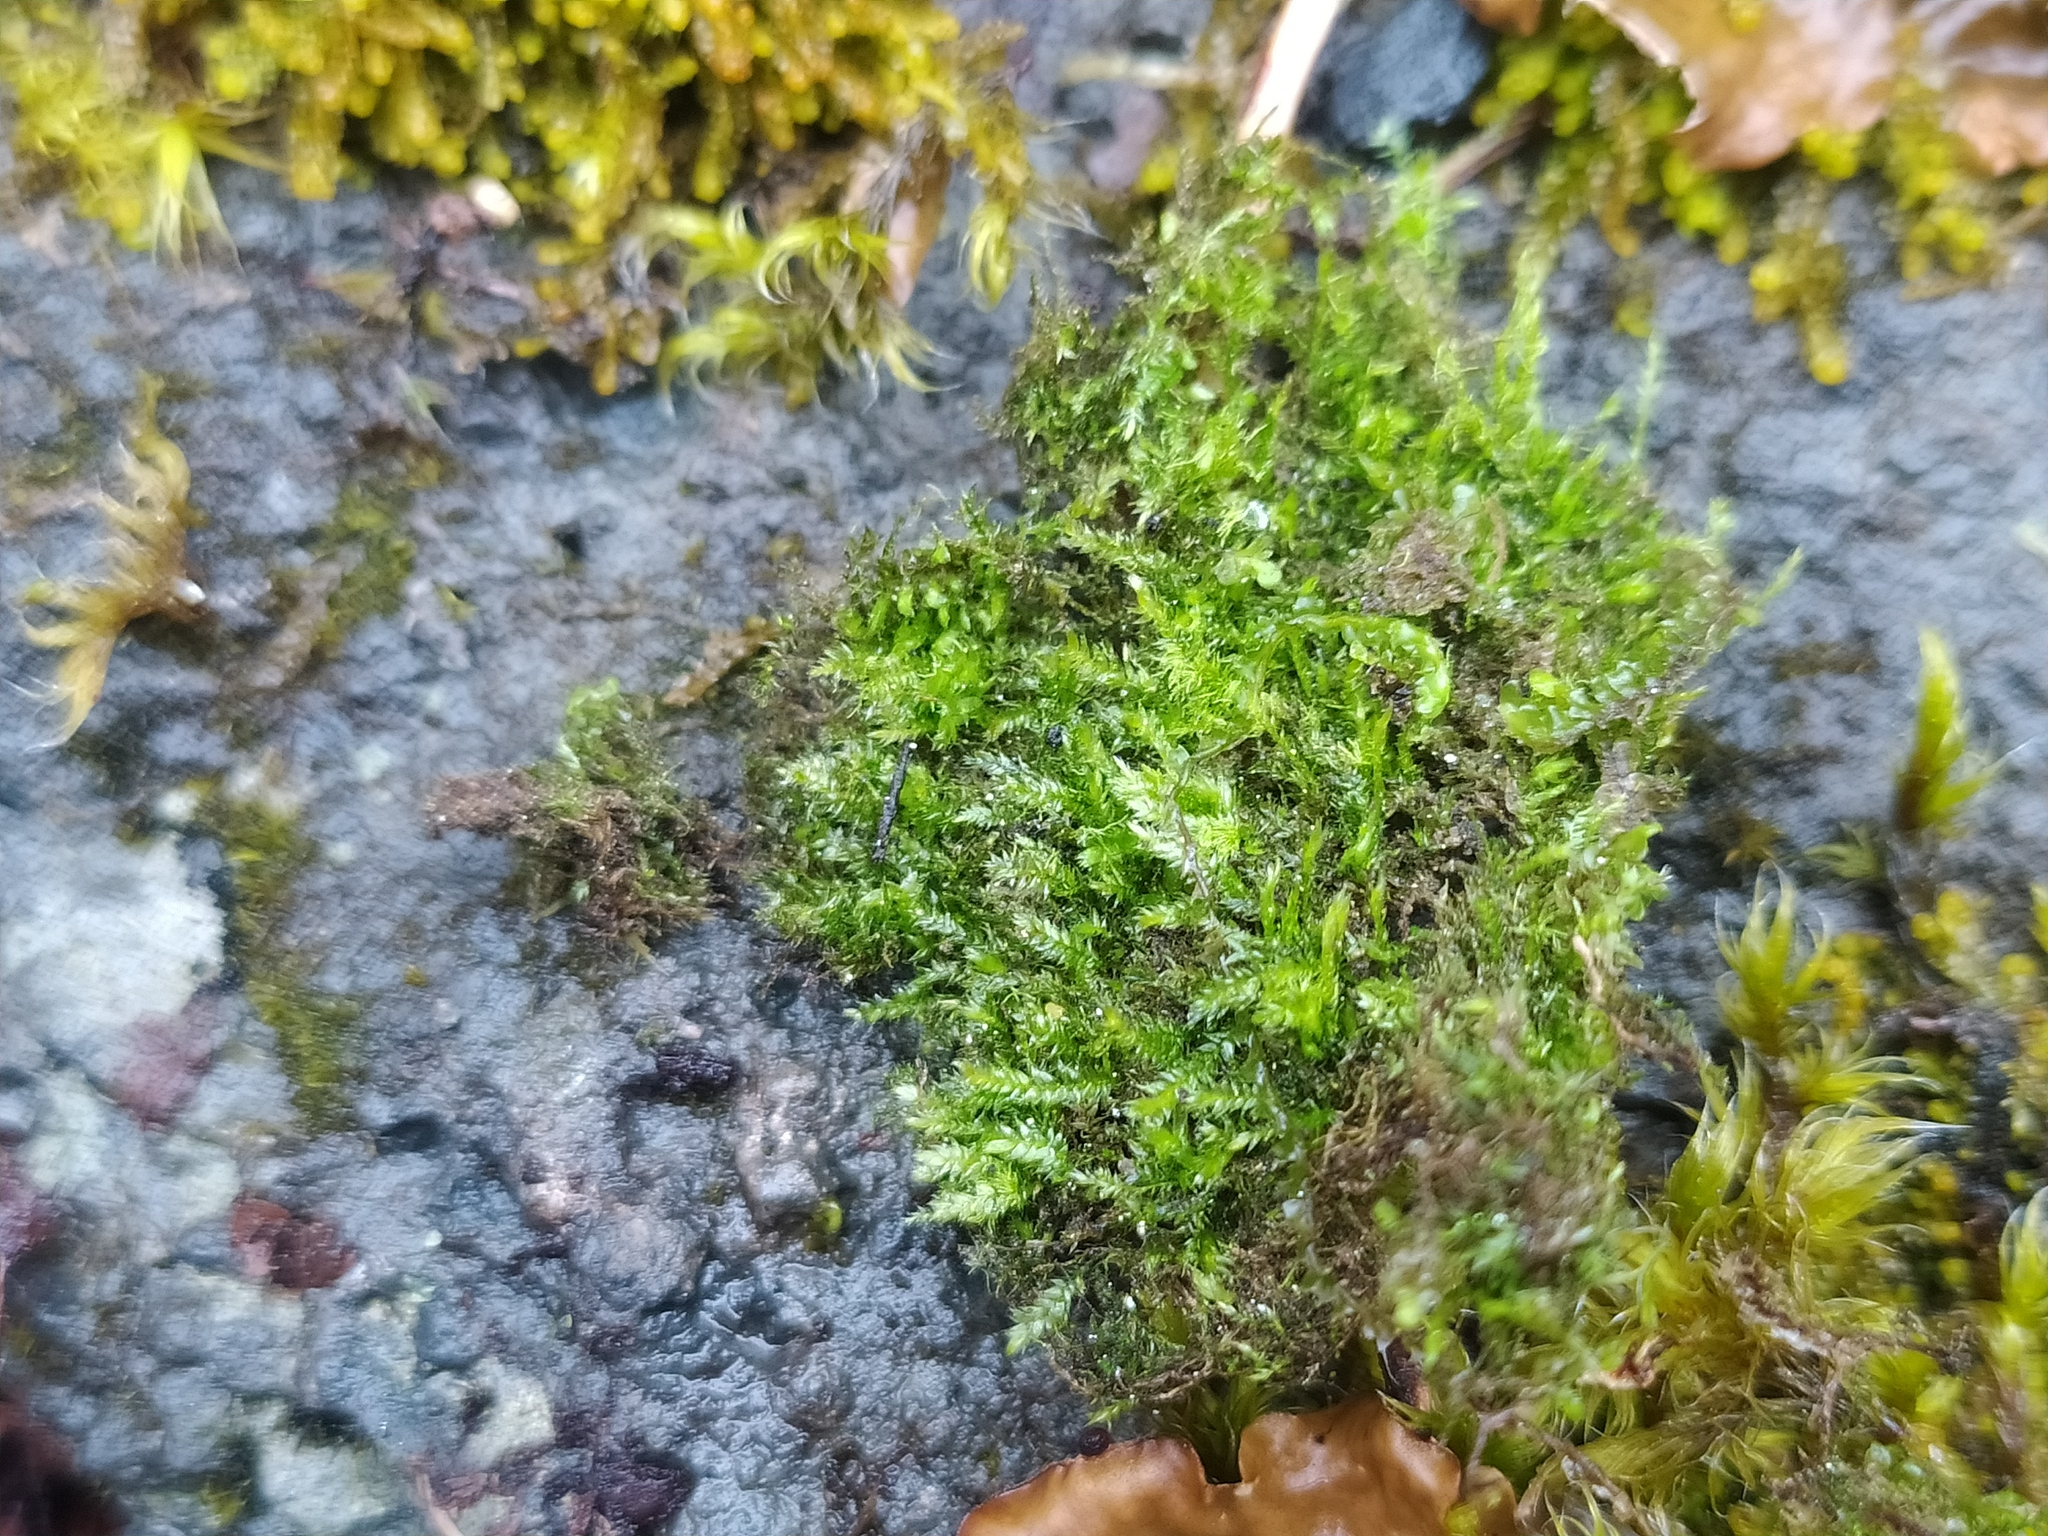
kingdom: Plantae
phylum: Bryophyta
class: Bryopsida
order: Hypnales
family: Plagiotheciaceae
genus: Pseudotaxiphyllum
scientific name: Pseudotaxiphyllum elegans
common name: Elegant silk moss
